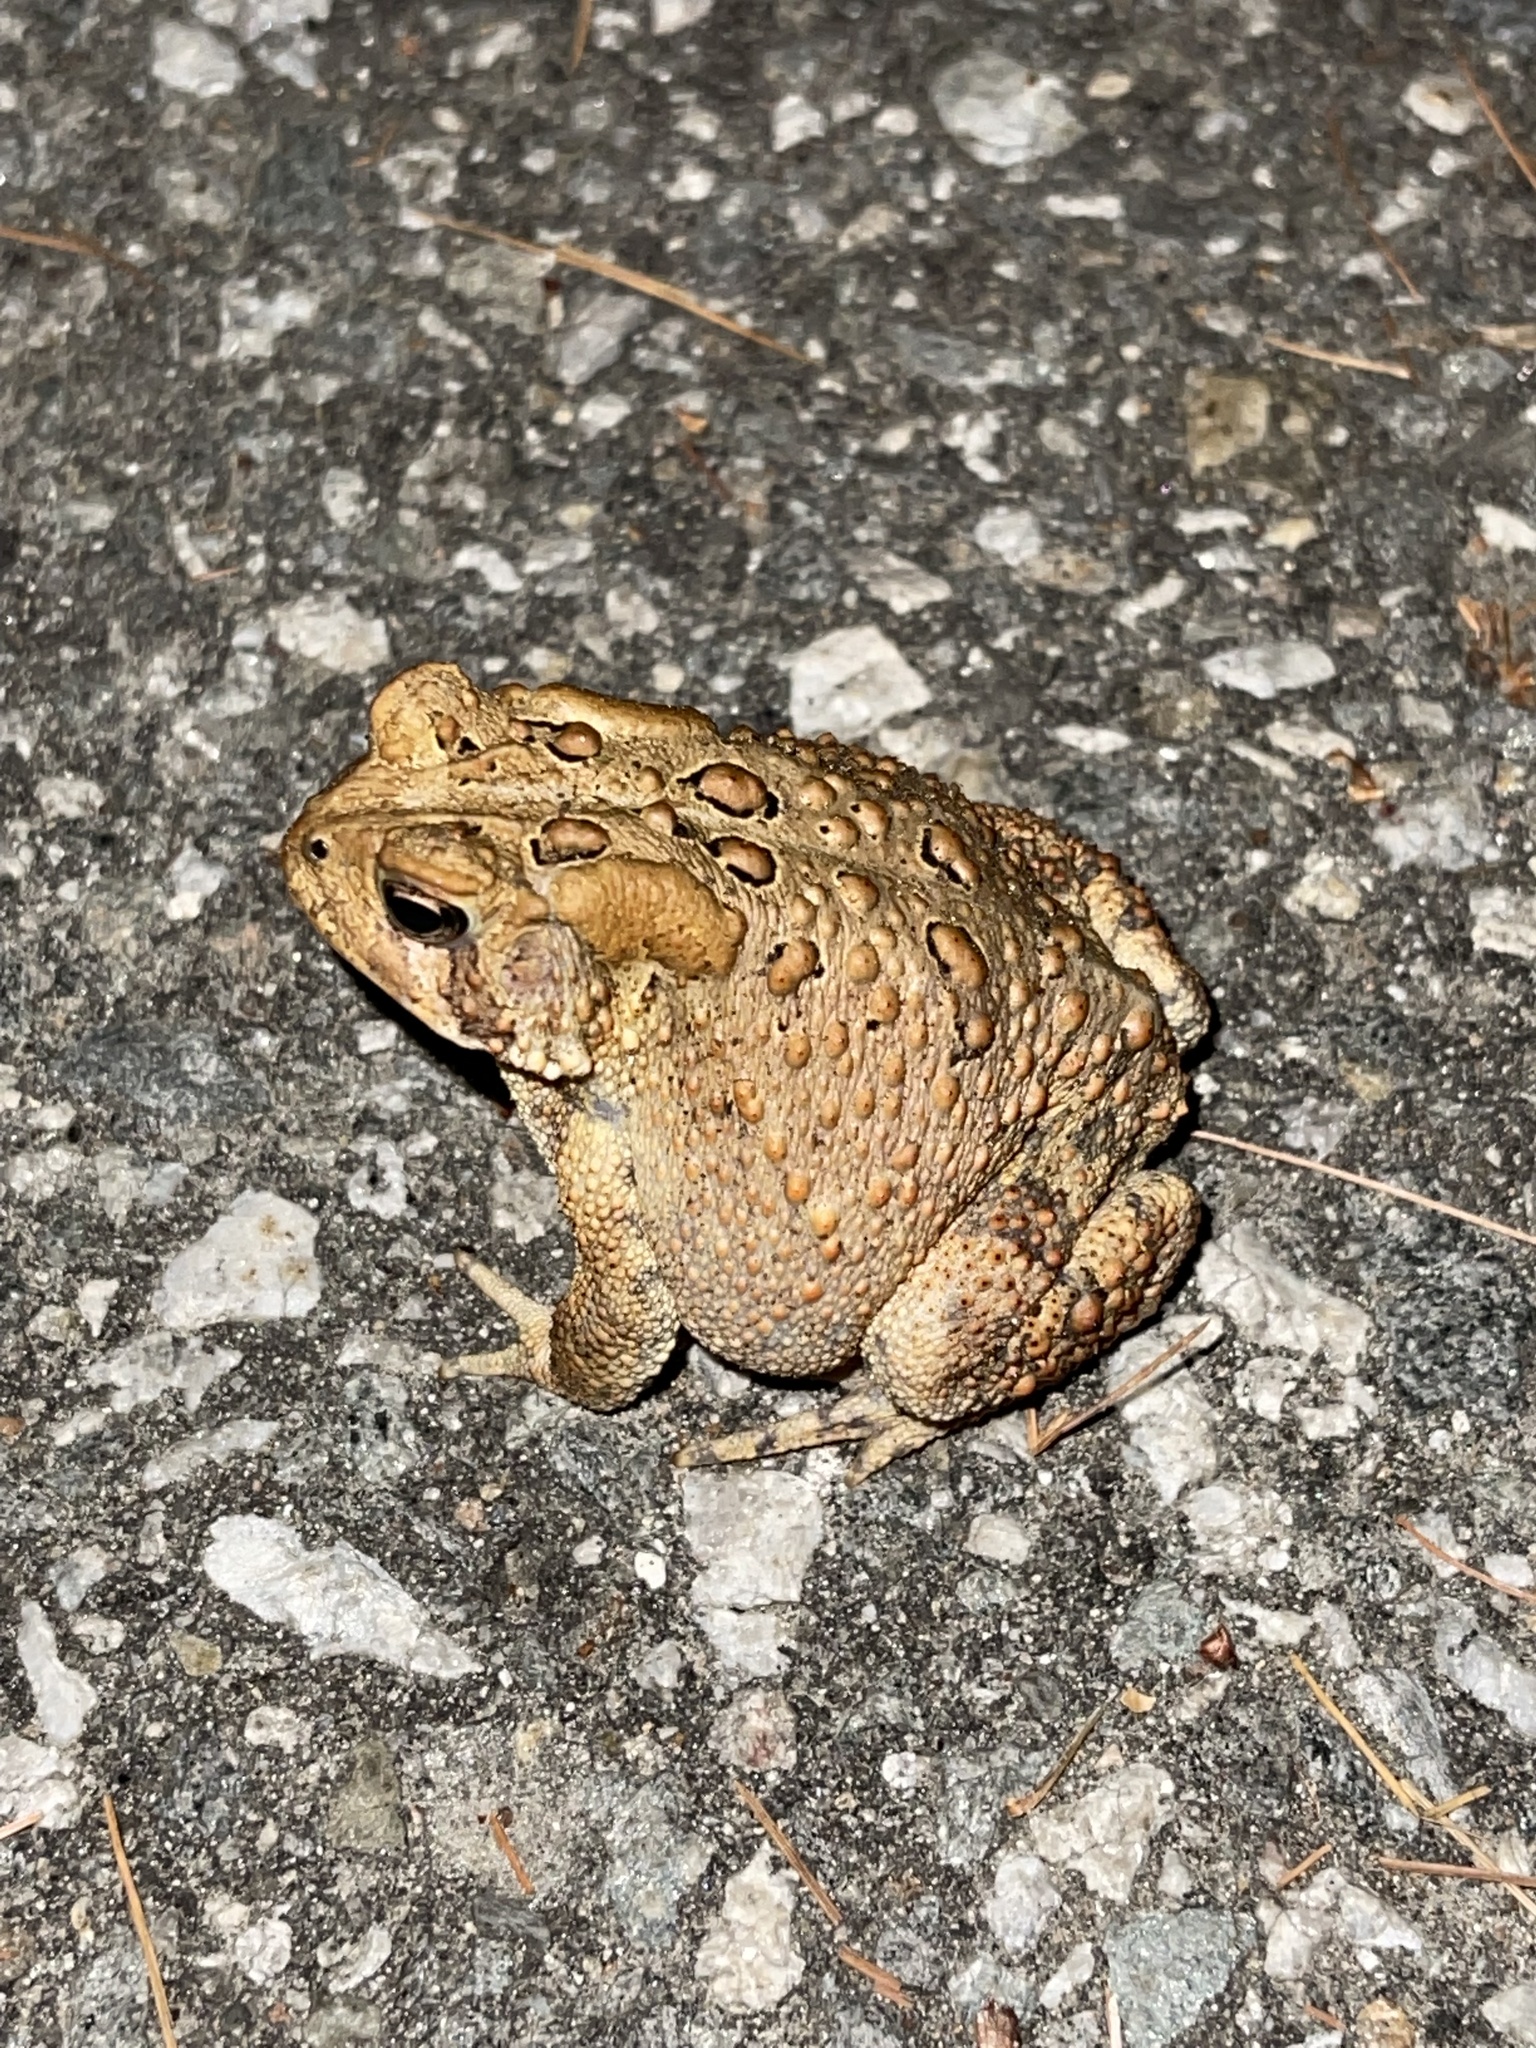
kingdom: Animalia
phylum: Chordata
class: Amphibia
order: Anura
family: Bufonidae
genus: Anaxyrus
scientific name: Anaxyrus americanus
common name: American toad
